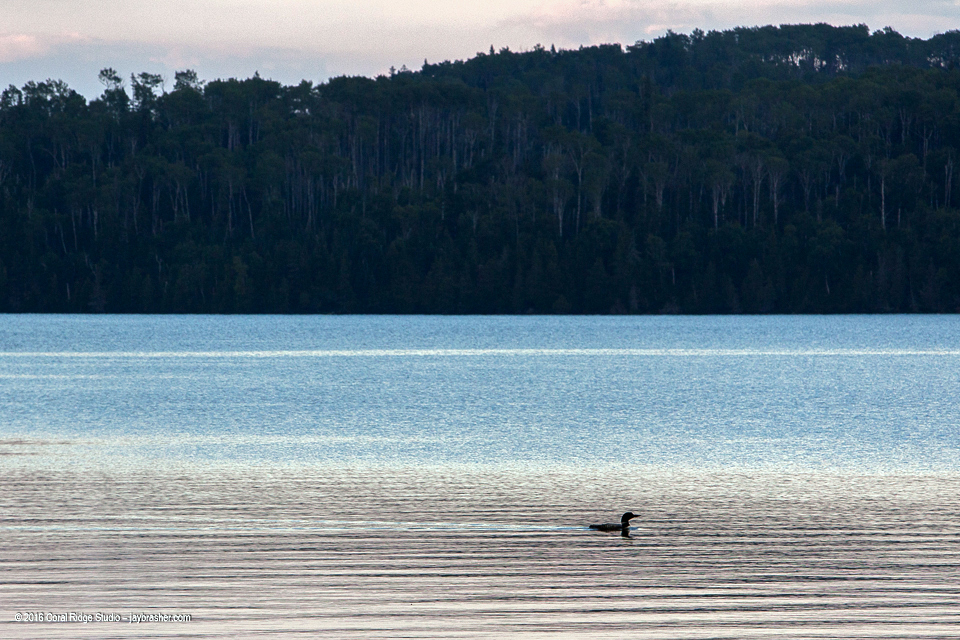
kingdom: Animalia
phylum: Chordata
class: Aves
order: Gaviiformes
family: Gaviidae
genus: Gavia
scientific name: Gavia immer
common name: Common loon
